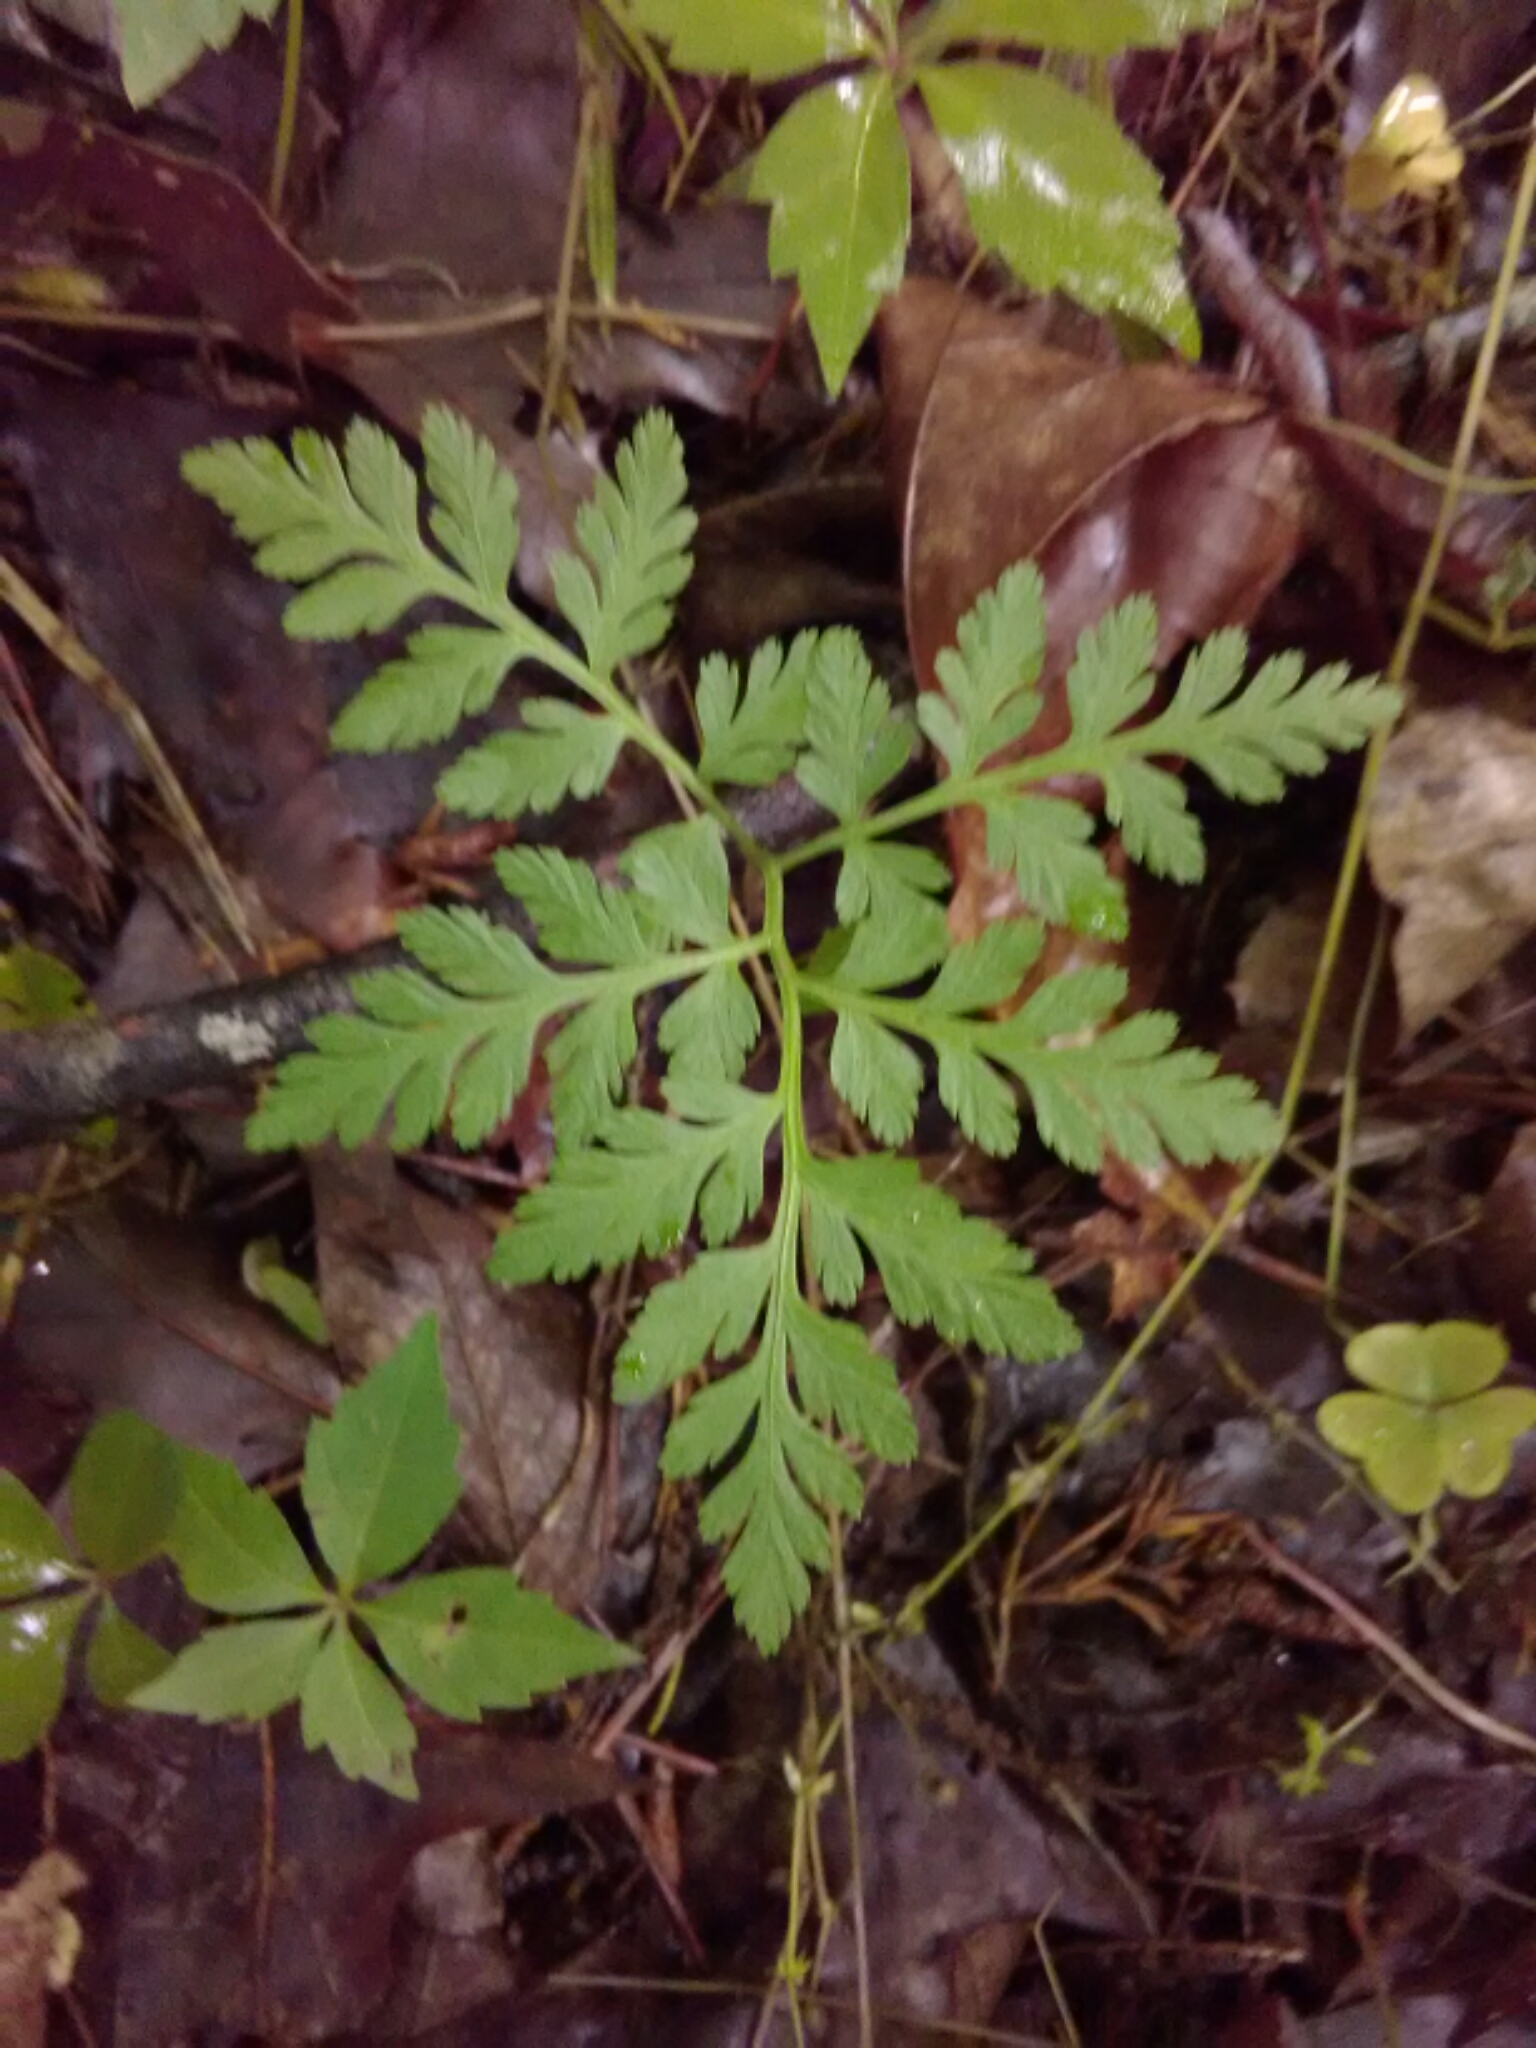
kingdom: Plantae
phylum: Tracheophyta
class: Polypodiopsida
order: Ophioglossales
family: Ophioglossaceae
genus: Botrypus
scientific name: Botrypus virginianus
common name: Common grapefern
